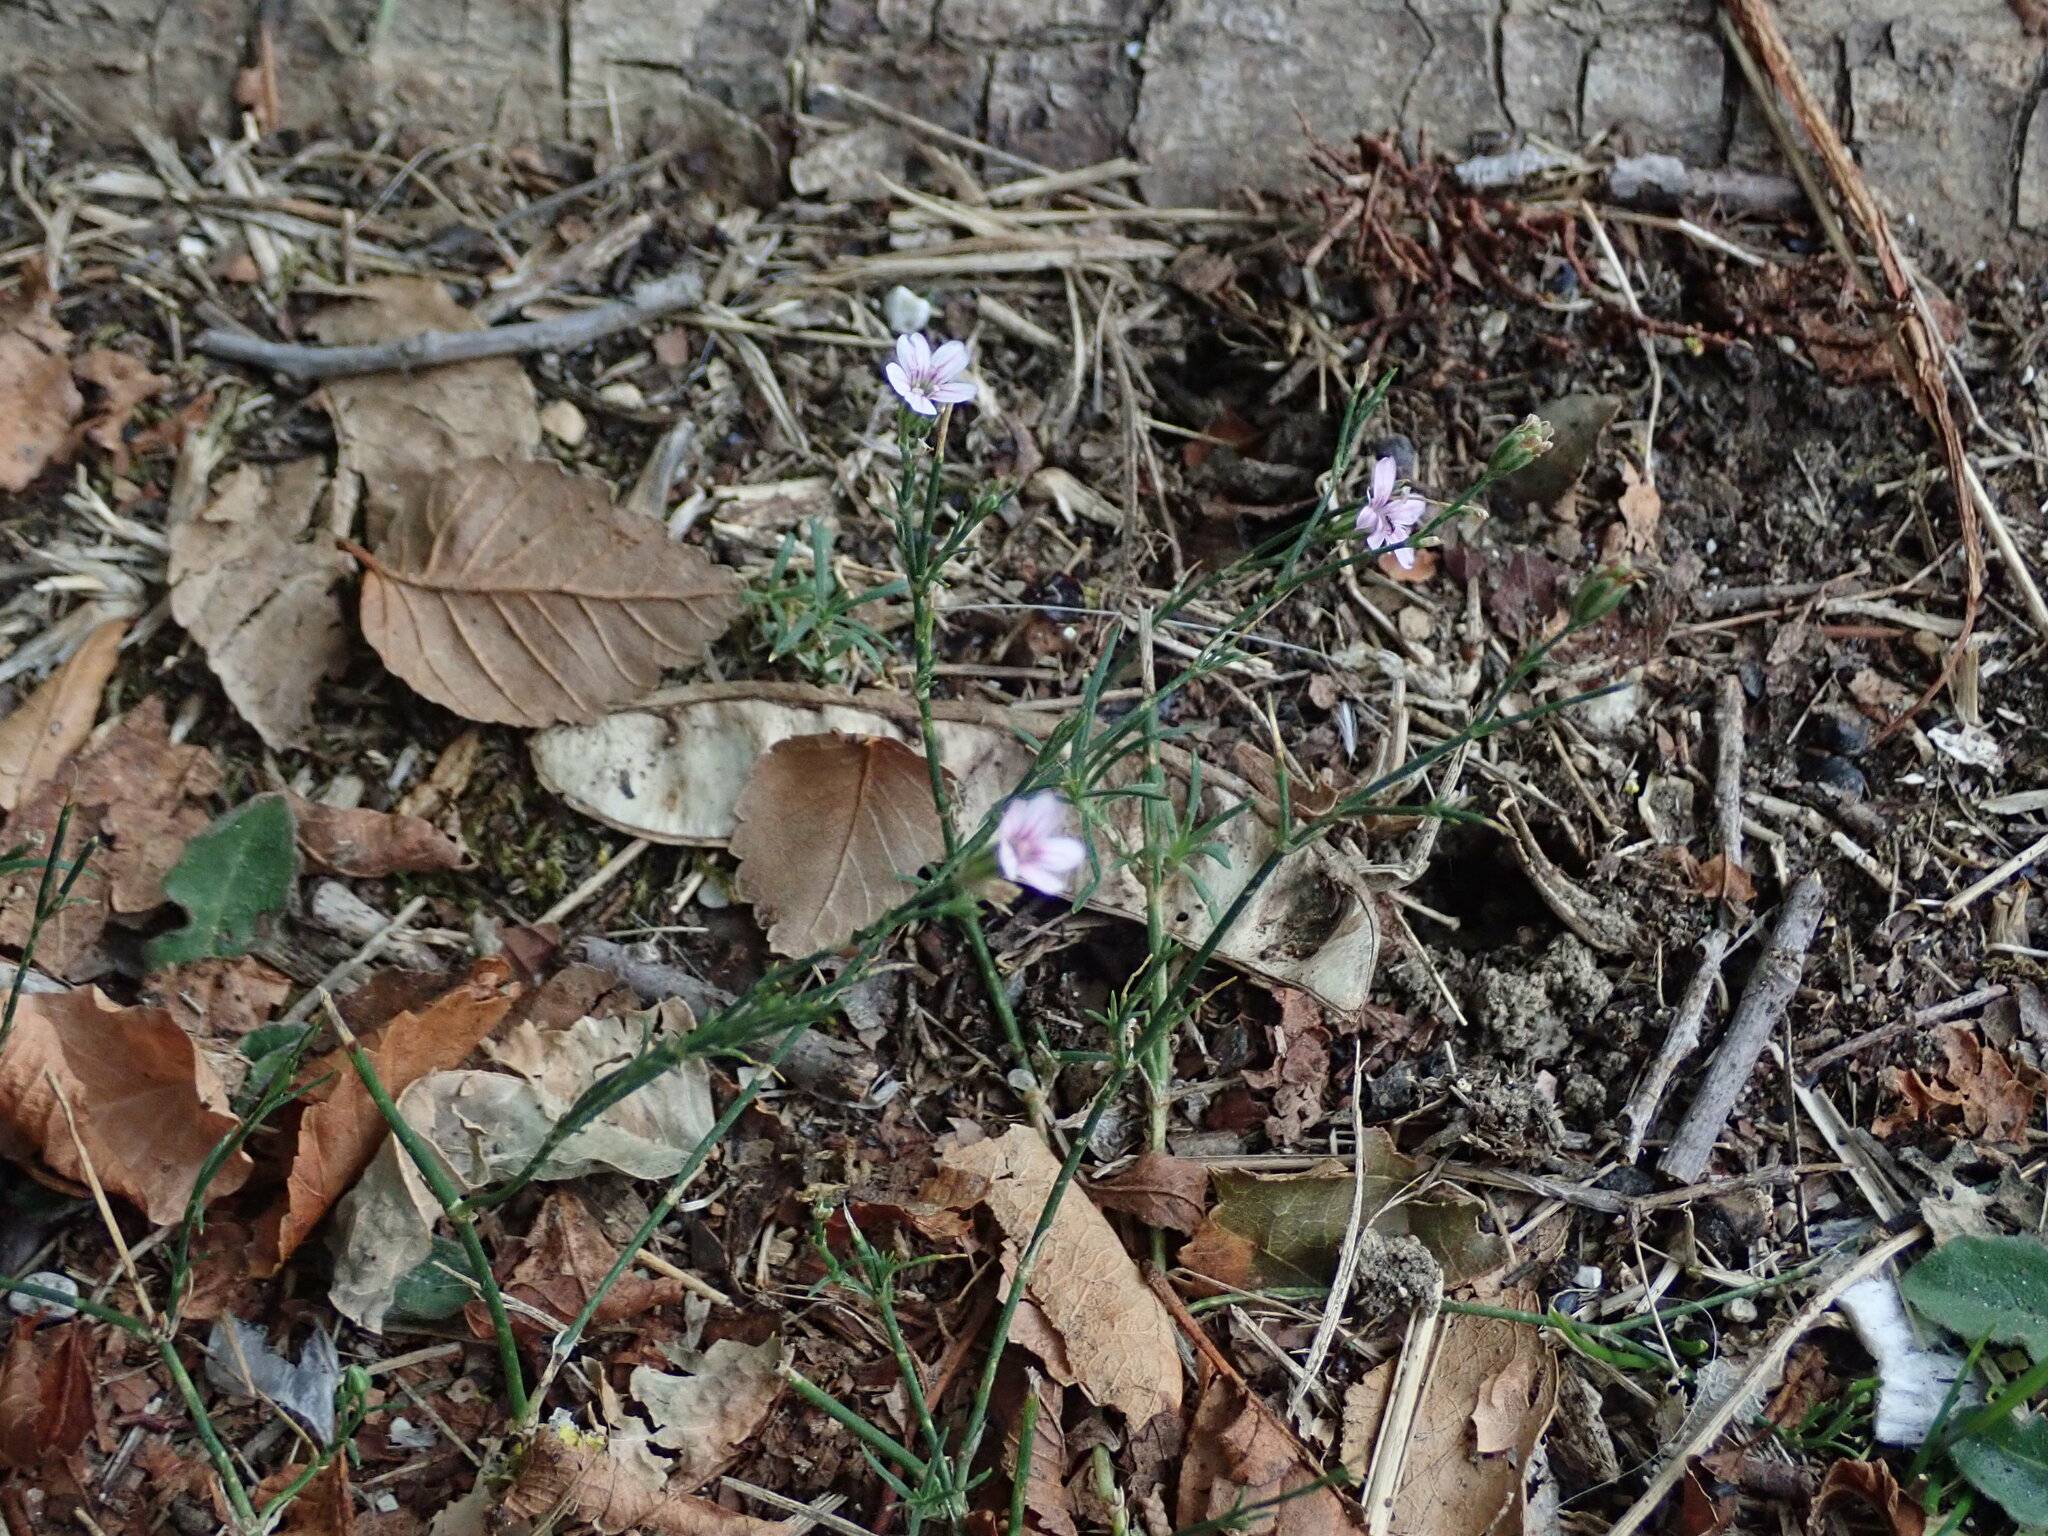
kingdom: Plantae
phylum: Tracheophyta
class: Magnoliopsida
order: Caryophyllales
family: Caryophyllaceae
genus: Petrorhagia
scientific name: Petrorhagia saxifraga
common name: Tunicflower
